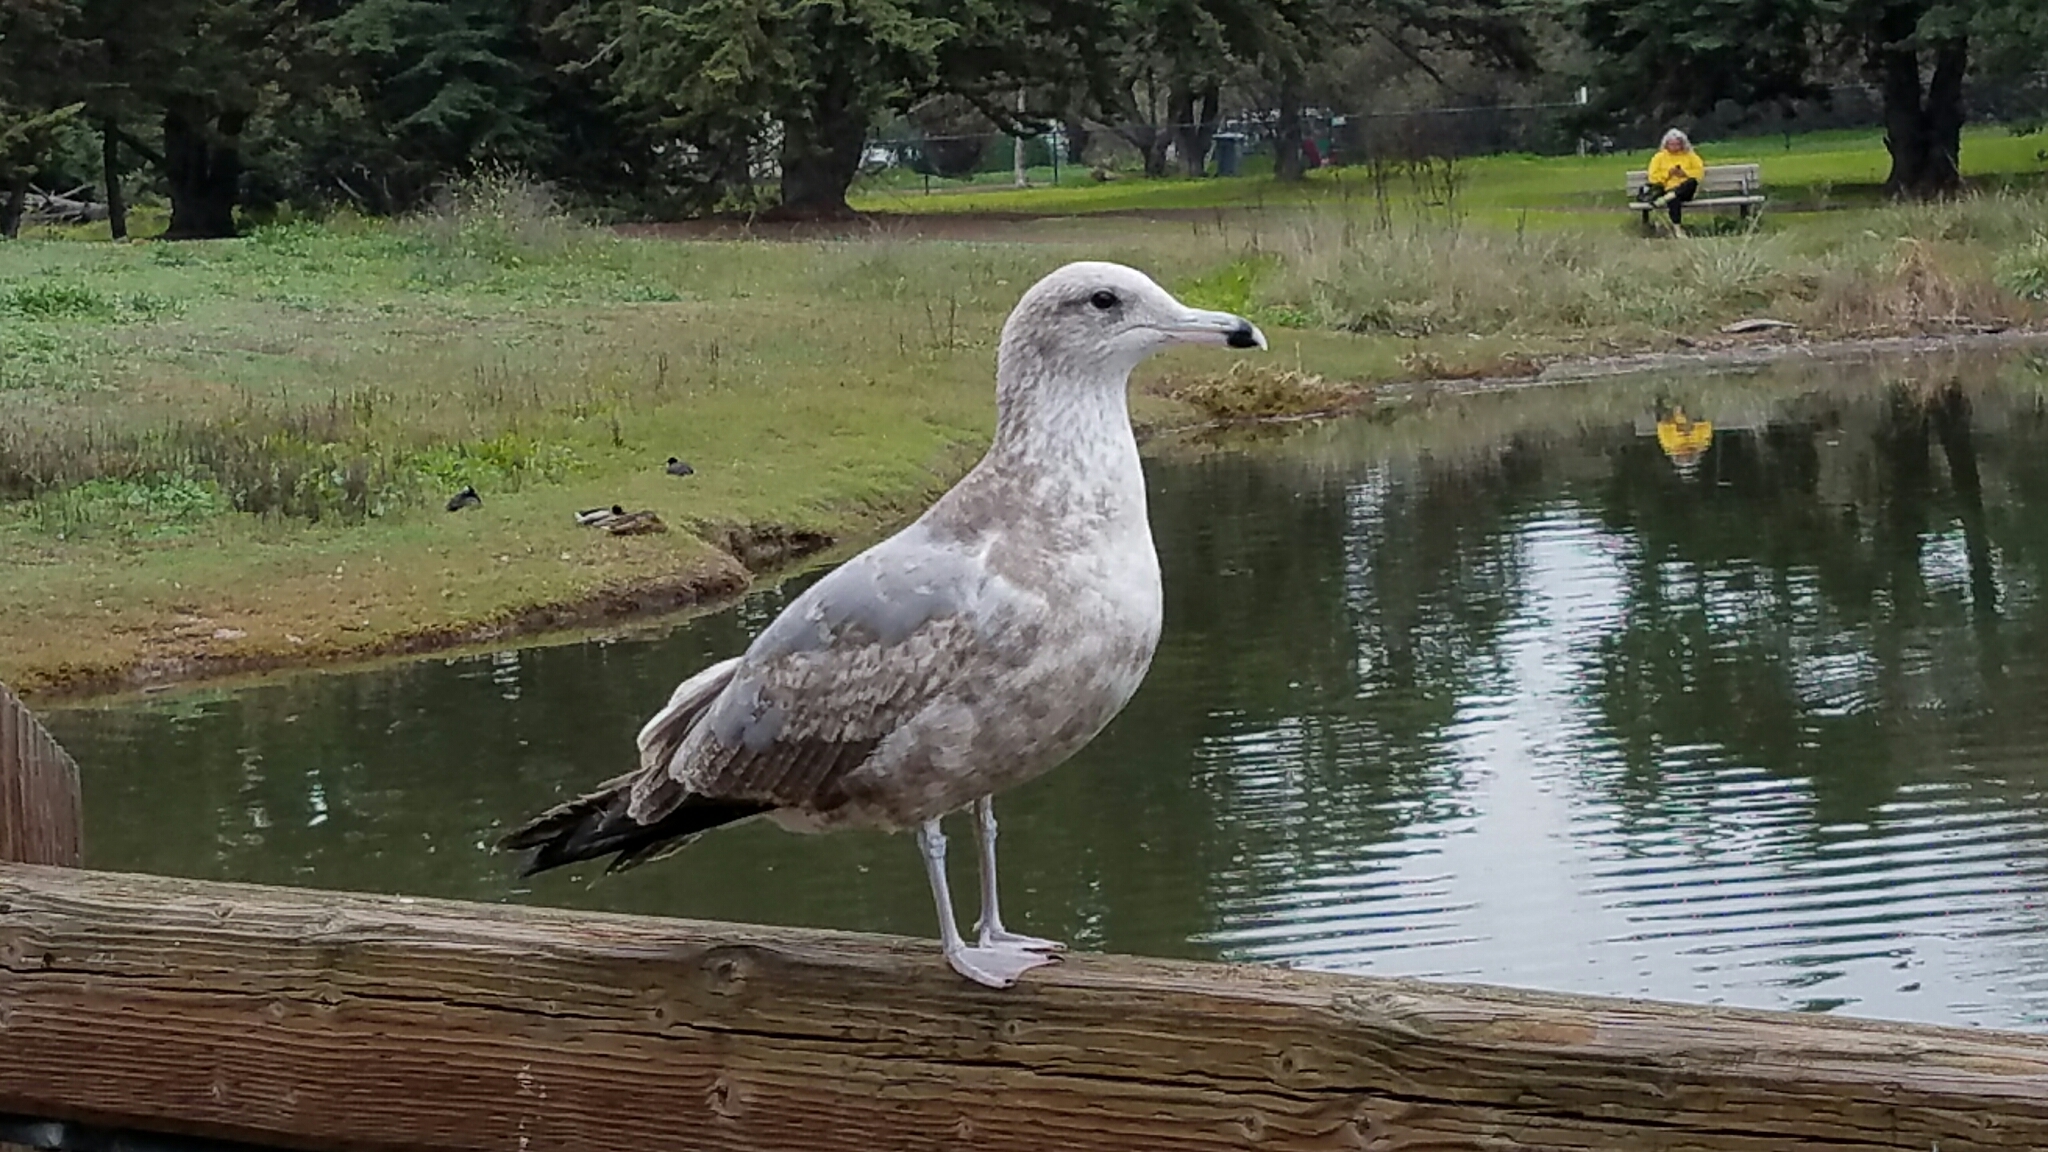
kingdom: Animalia
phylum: Chordata
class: Aves
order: Charadriiformes
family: Laridae
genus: Larus
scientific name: Larus californicus
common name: California gull
